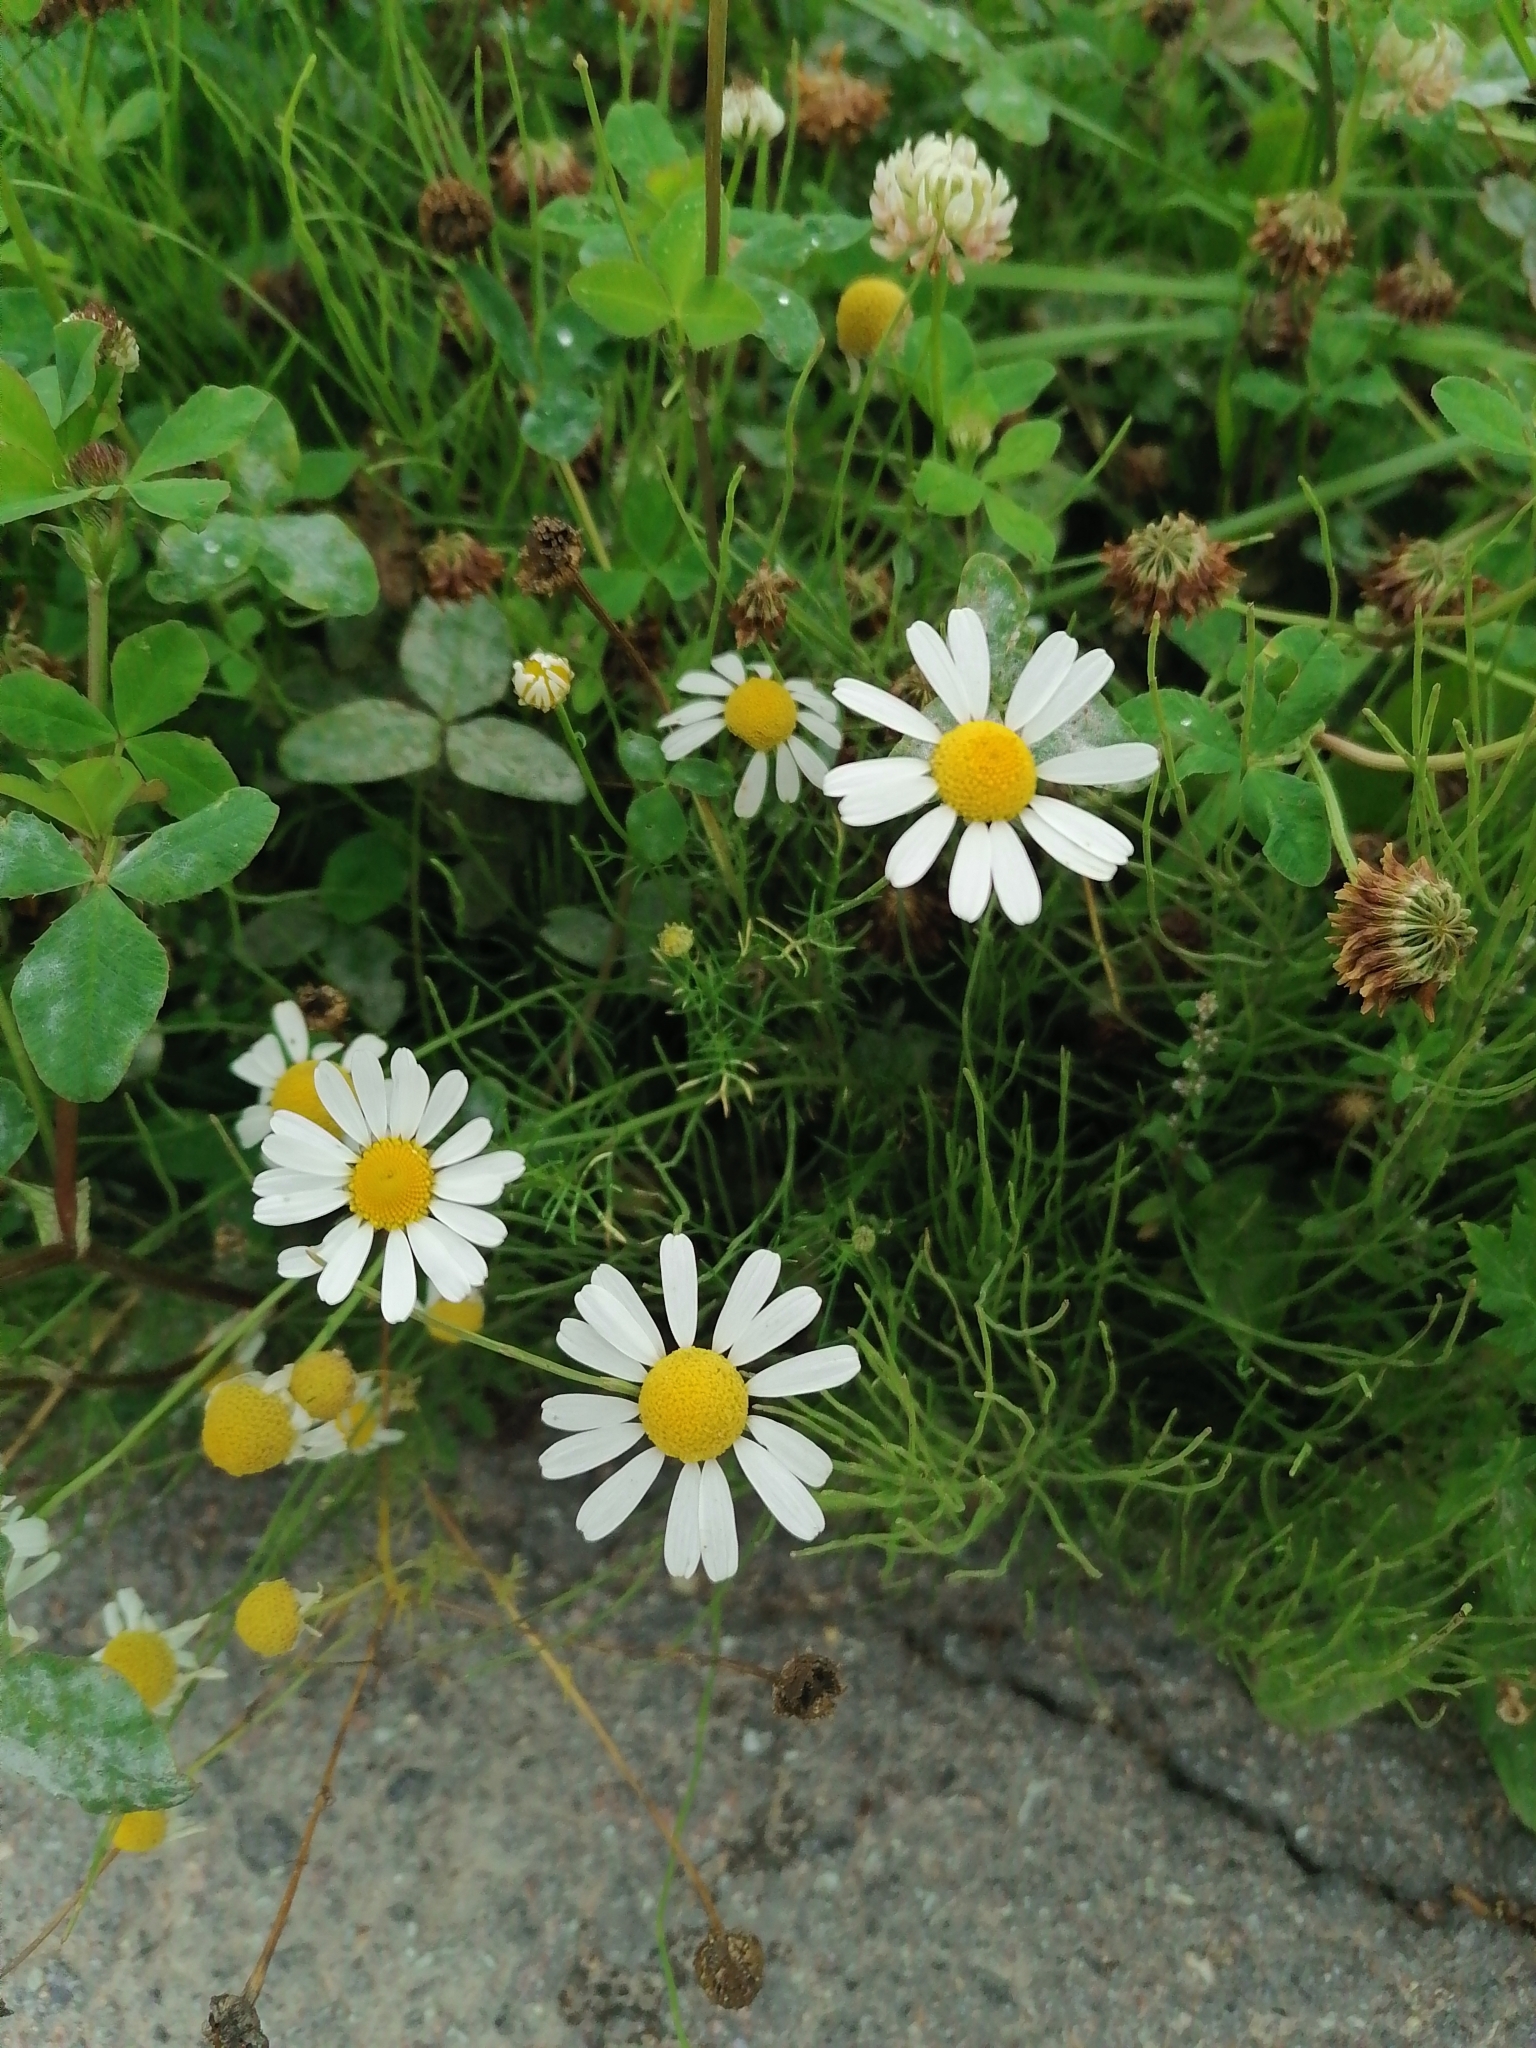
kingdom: Plantae
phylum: Tracheophyta
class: Magnoliopsida
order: Asterales
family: Asteraceae
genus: Tripleurospermum
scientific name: Tripleurospermum inodorum
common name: Scentless mayweed
